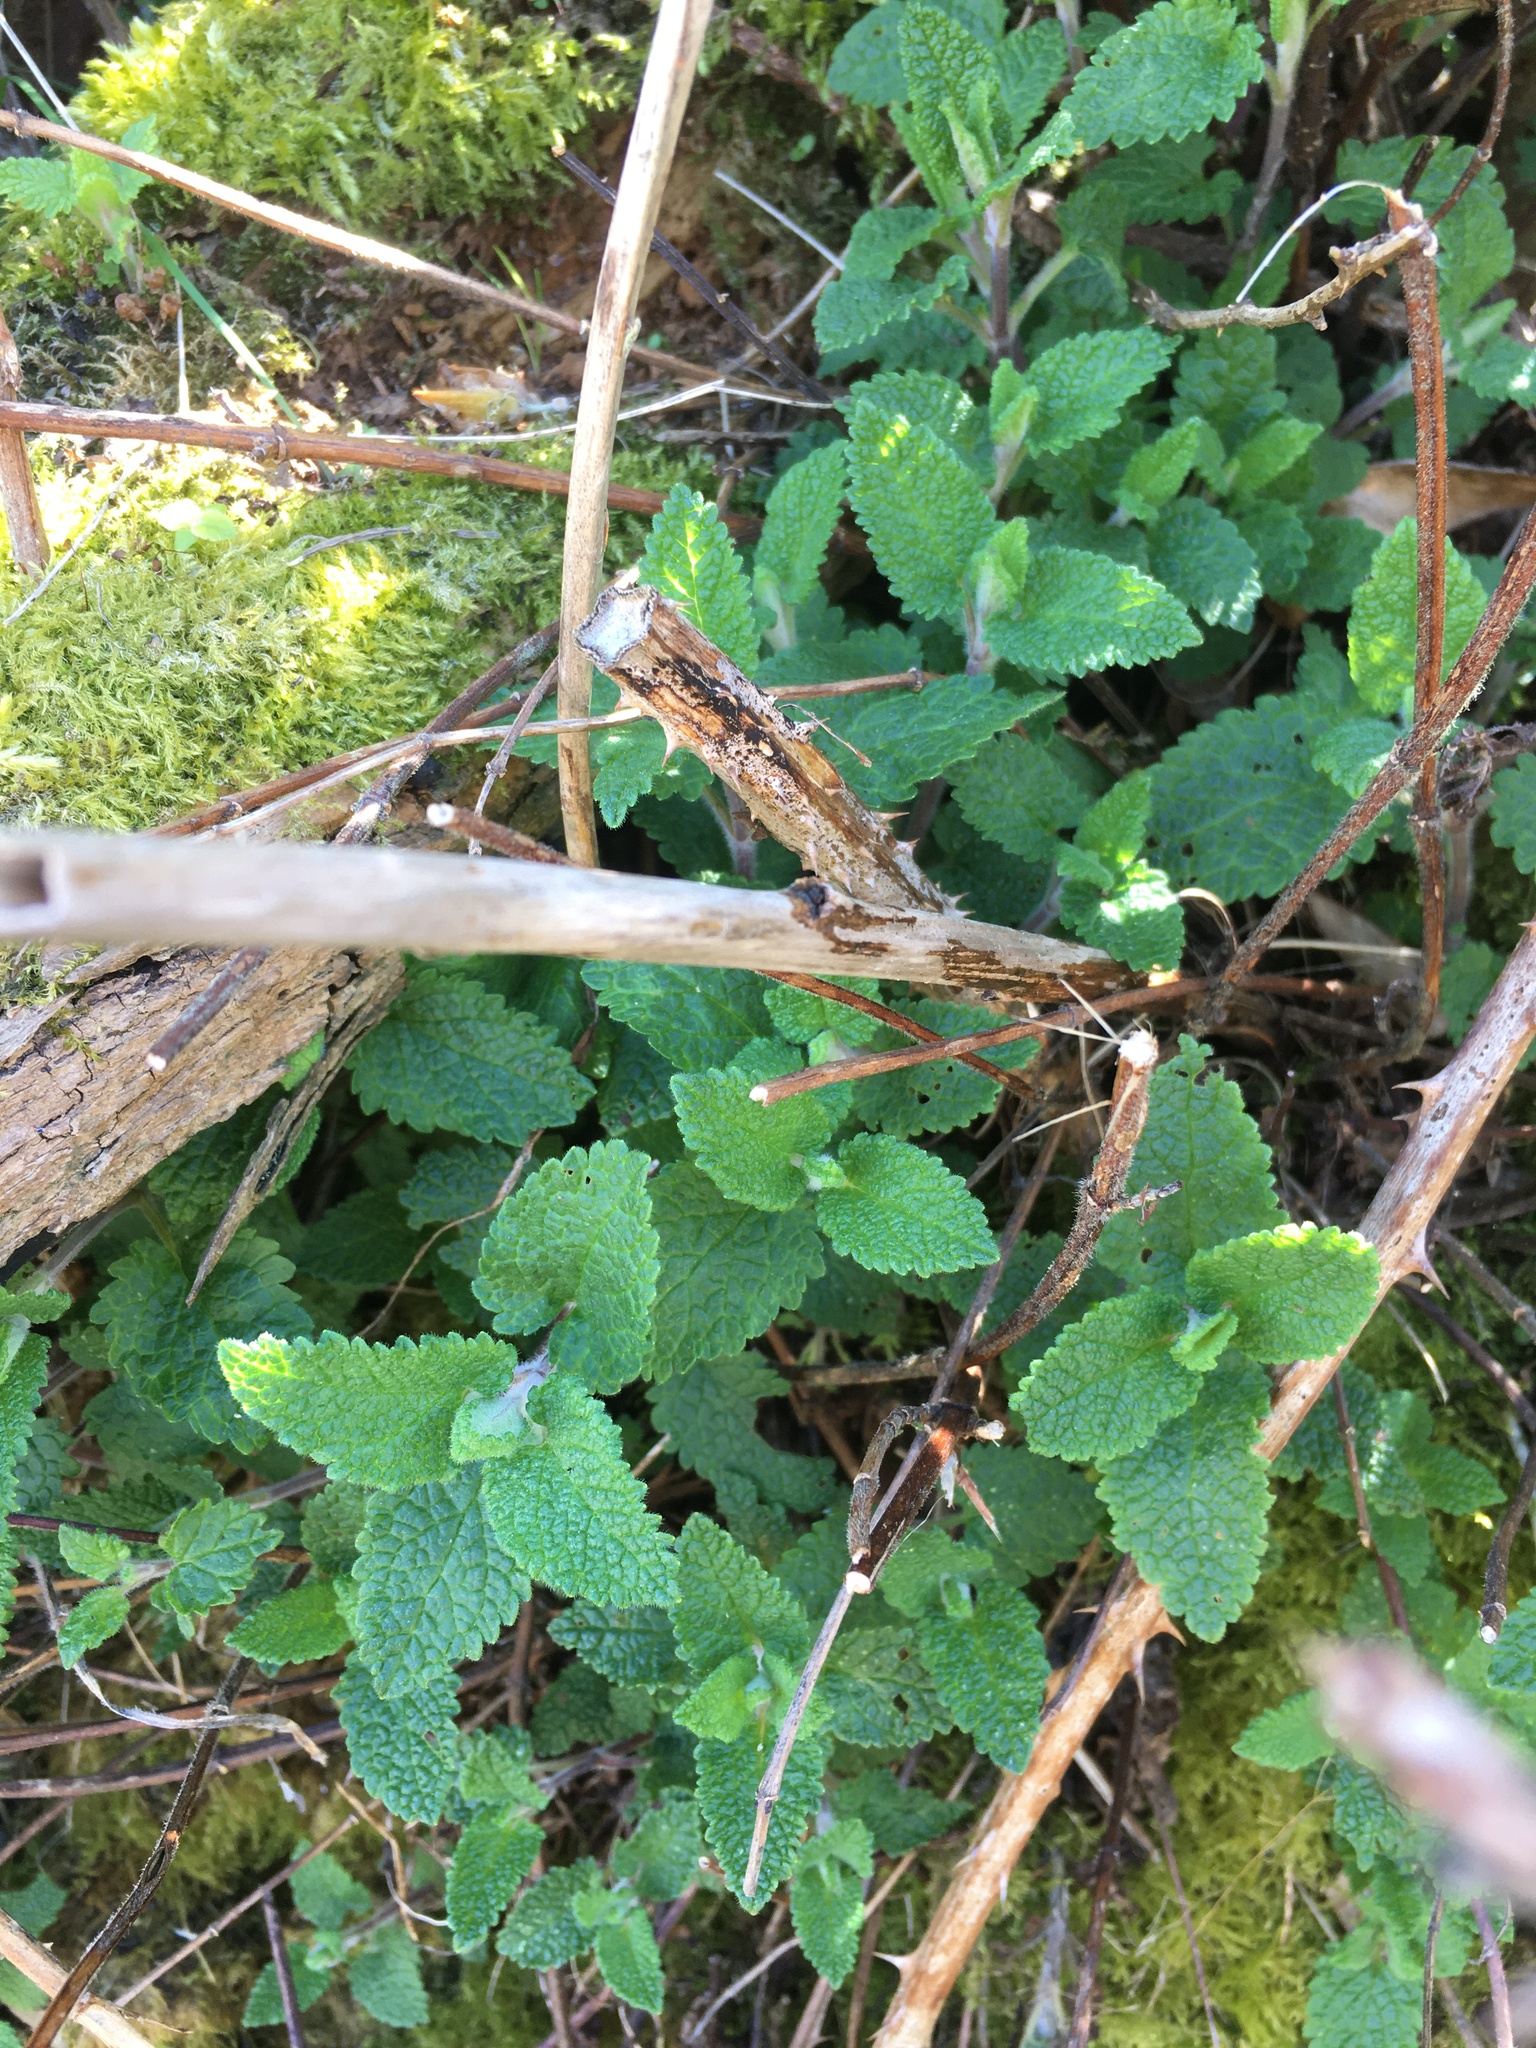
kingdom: Plantae
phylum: Tracheophyta
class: Magnoliopsida
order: Lamiales
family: Lamiaceae
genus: Teucrium
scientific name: Teucrium scorodonia
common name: Woodland germander
